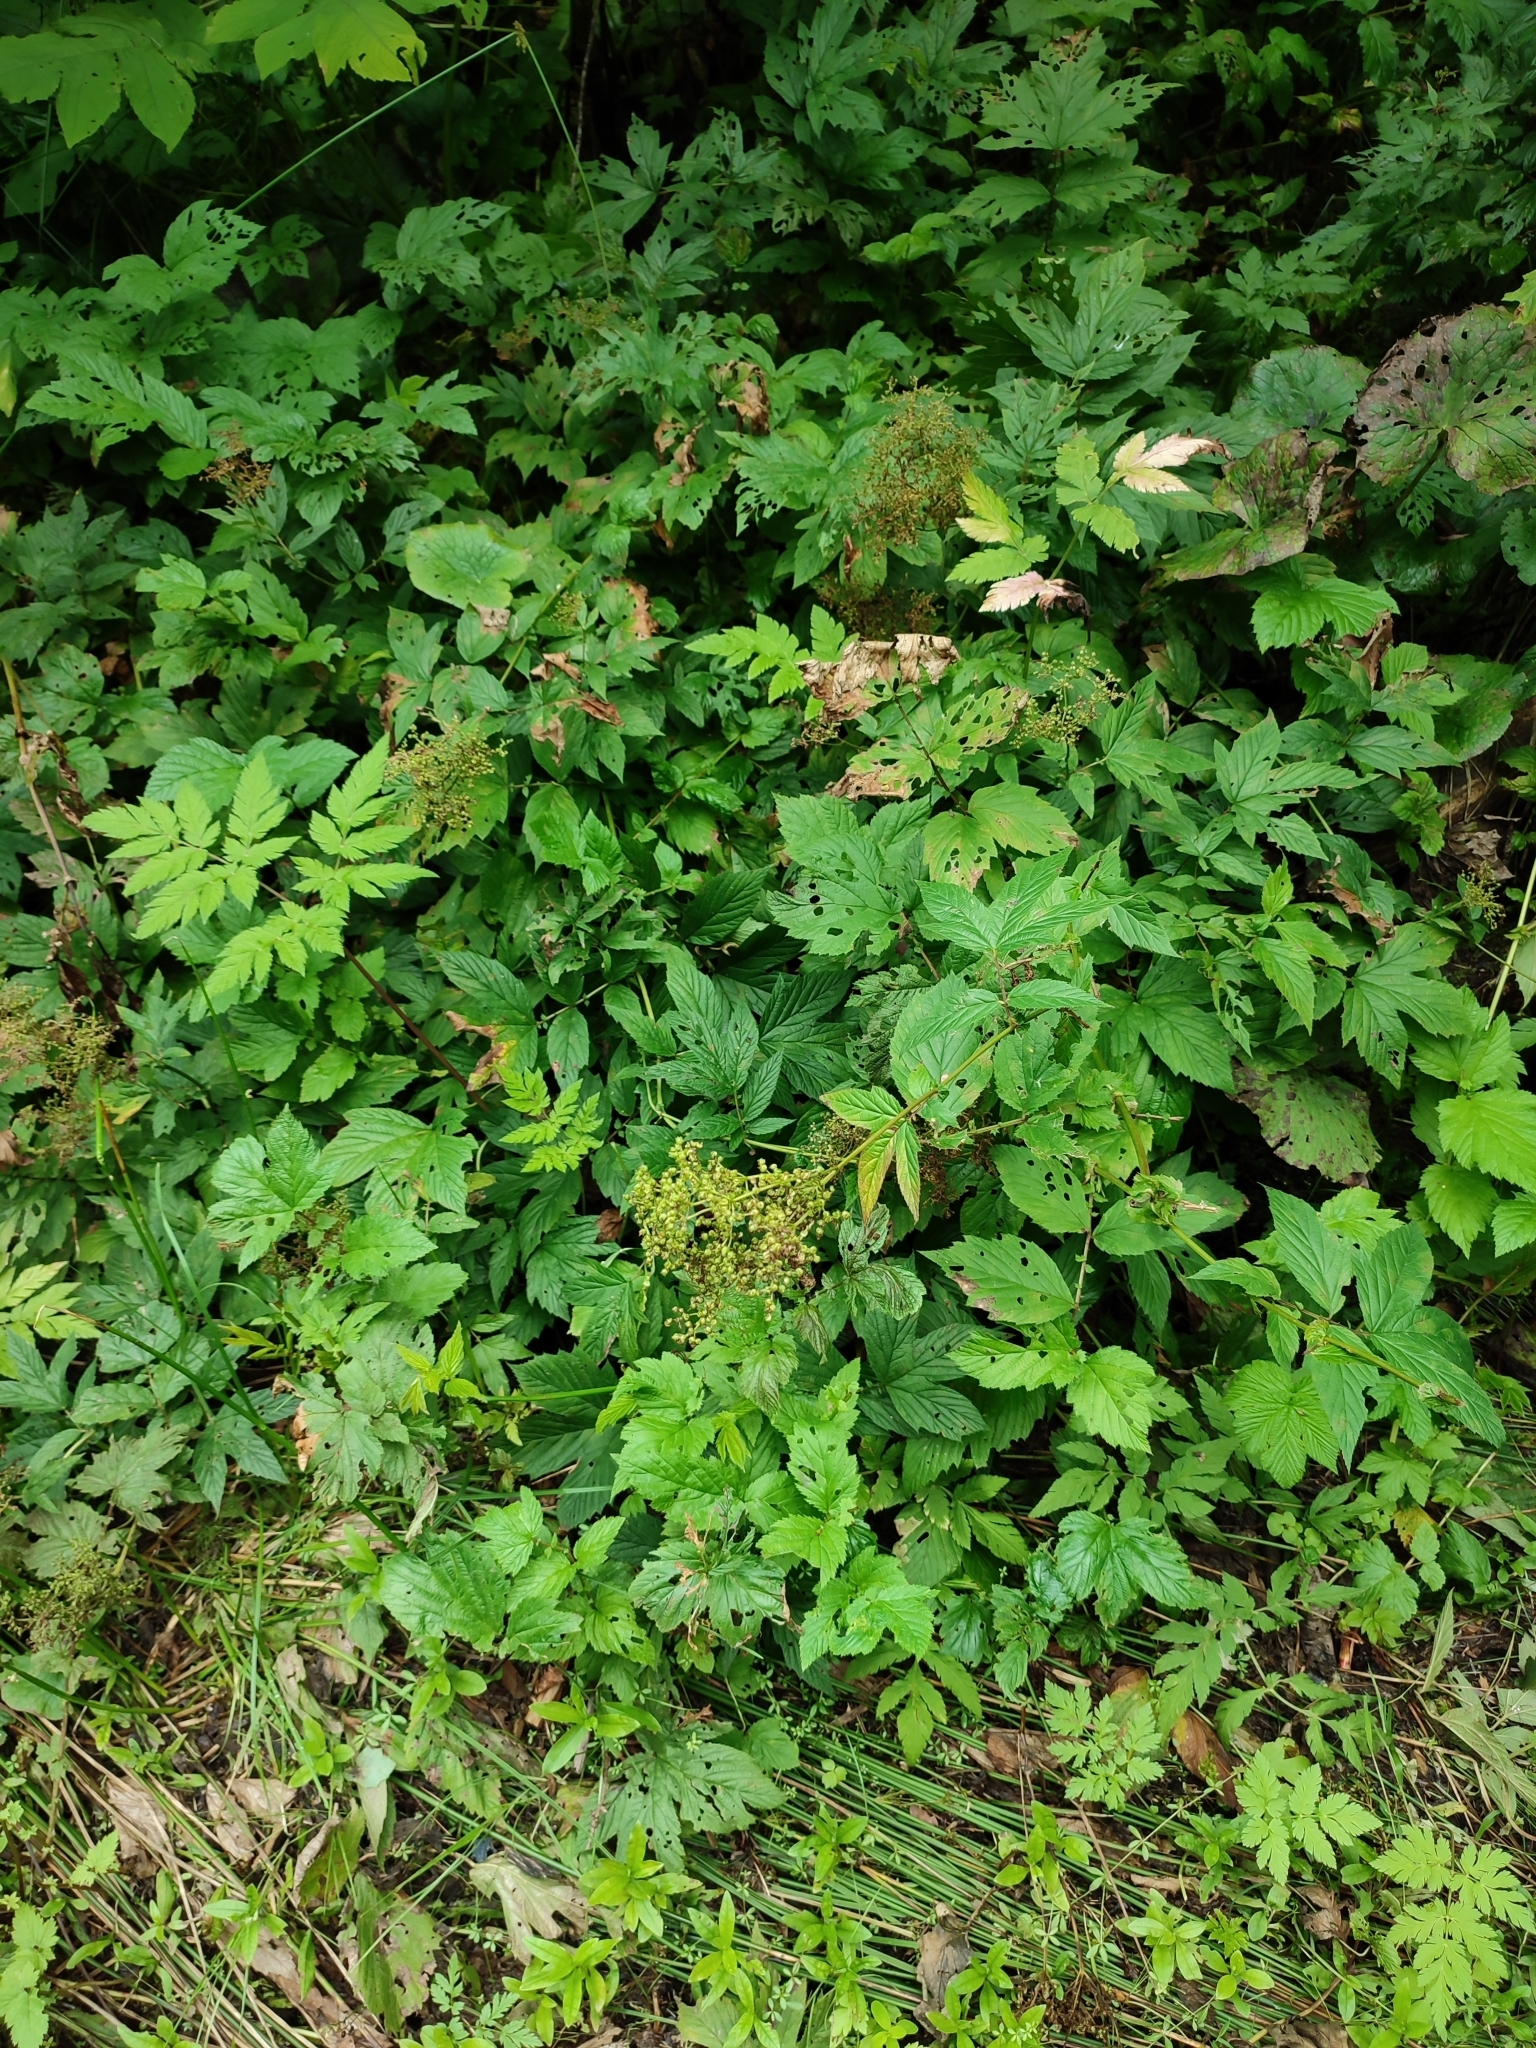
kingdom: Plantae
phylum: Tracheophyta
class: Magnoliopsida
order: Rosales
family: Rosaceae
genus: Filipendula
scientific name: Filipendula ulmaria
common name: Meadowsweet
